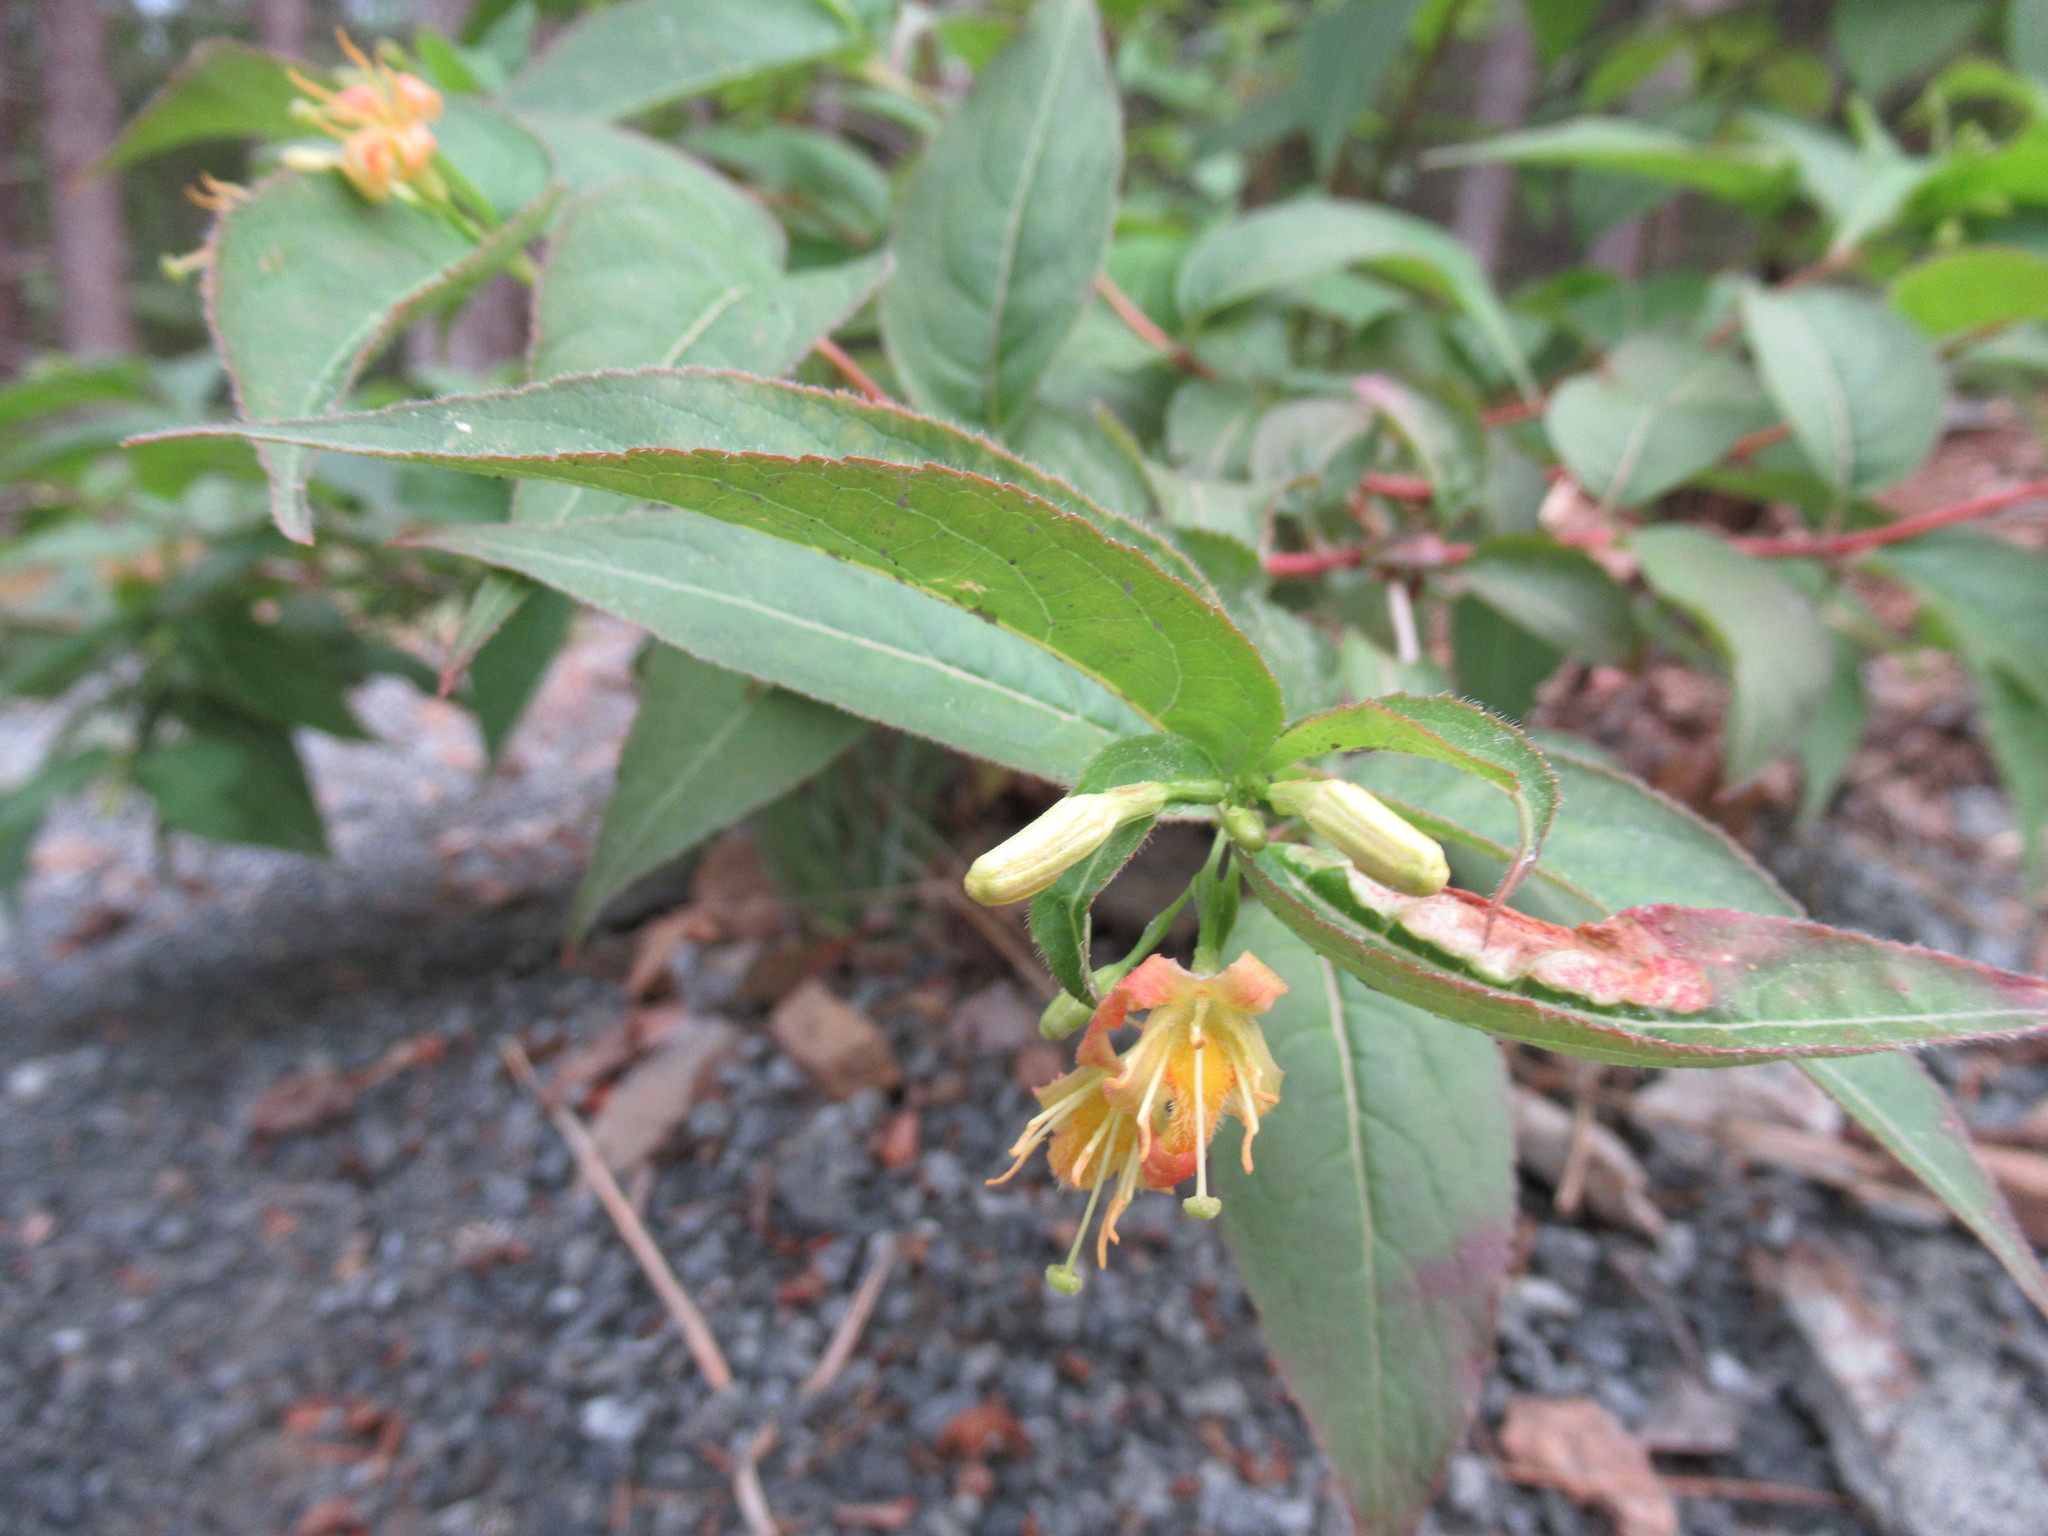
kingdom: Plantae
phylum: Tracheophyta
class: Magnoliopsida
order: Dipsacales
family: Caprifoliaceae
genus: Diervilla
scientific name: Diervilla lonicera
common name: Bush-honeysuckle
